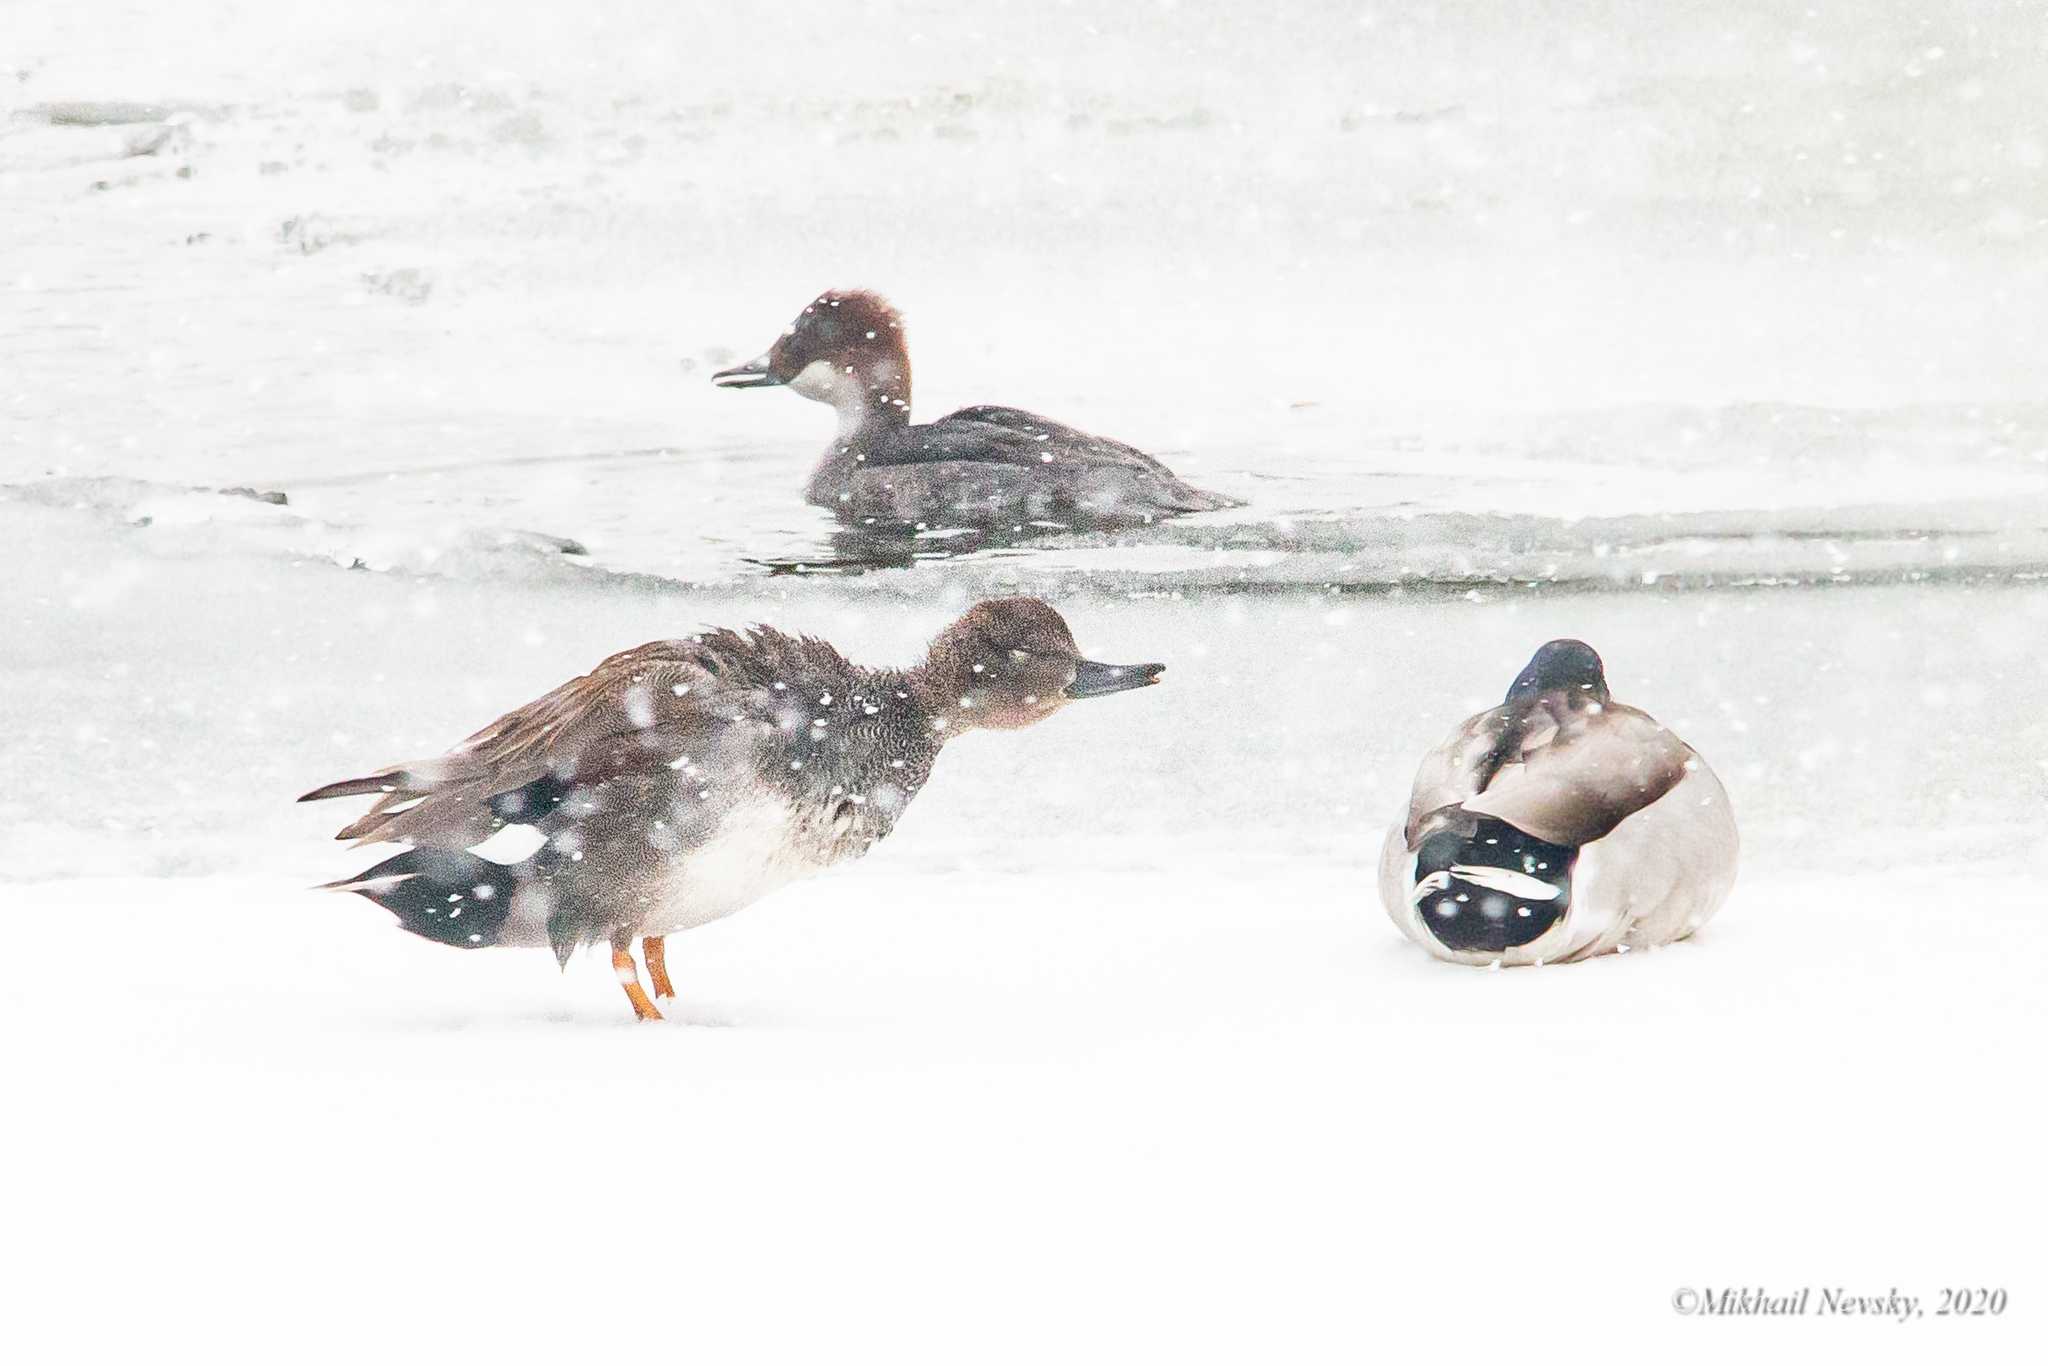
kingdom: Animalia
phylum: Chordata
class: Aves
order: Anseriformes
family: Anatidae
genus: Mareca
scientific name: Mareca strepera
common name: Gadwall
